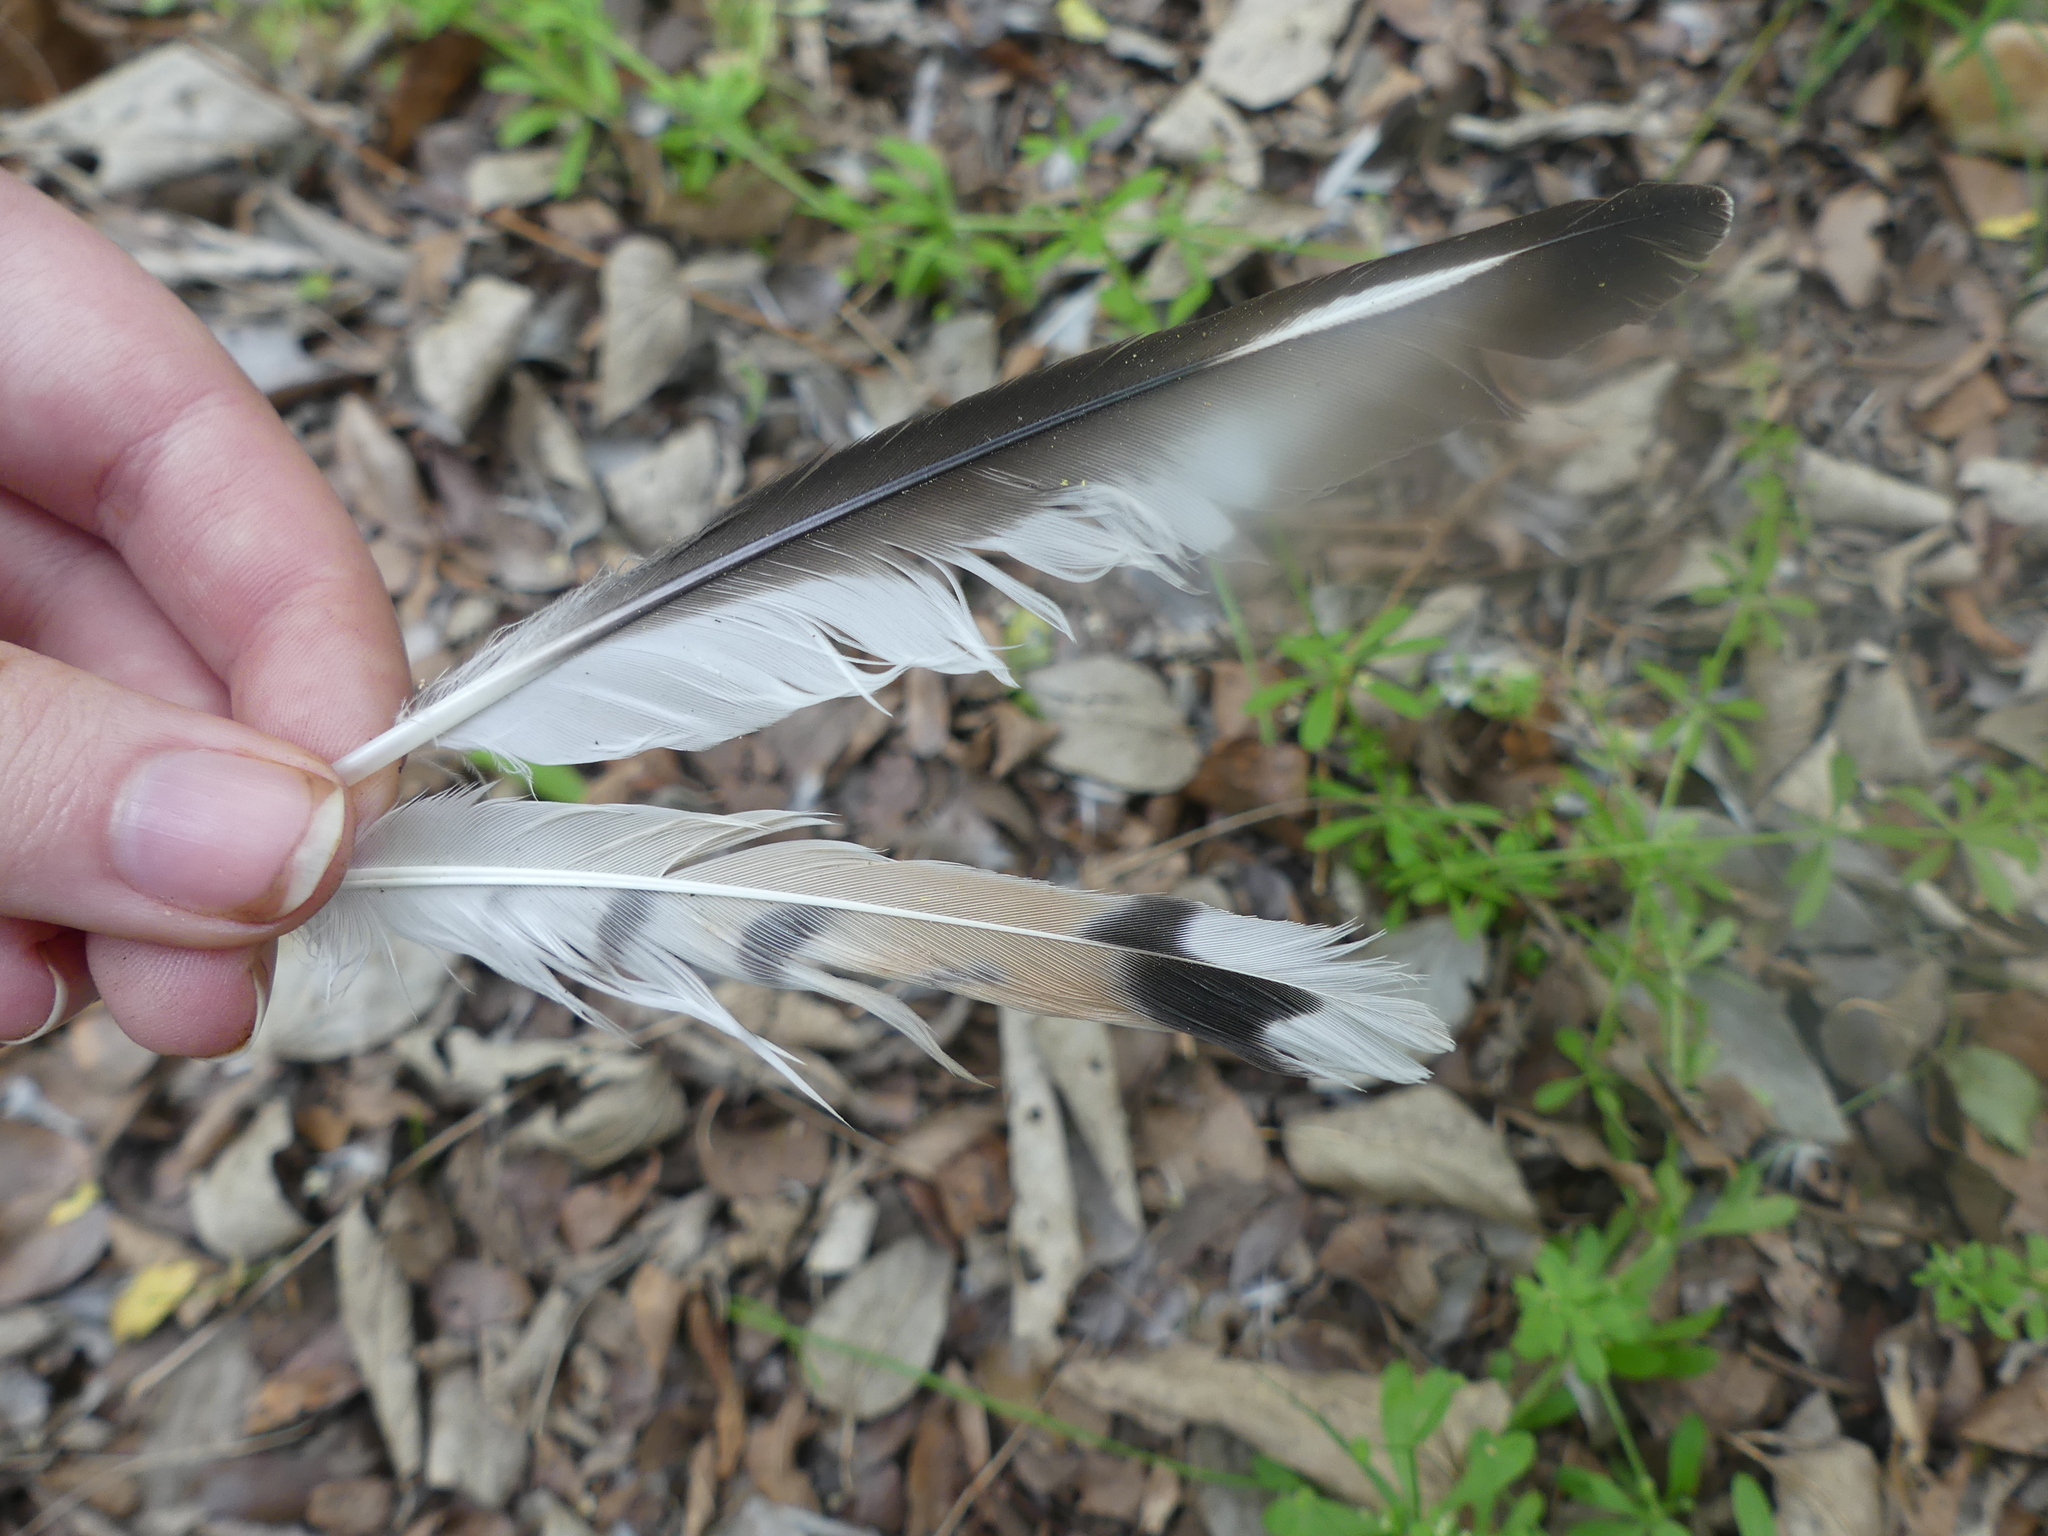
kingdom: Animalia
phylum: Chordata
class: Aves
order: Charadriiformes
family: Charadriidae
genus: Charadrius
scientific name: Charadrius vociferus
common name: Killdeer
